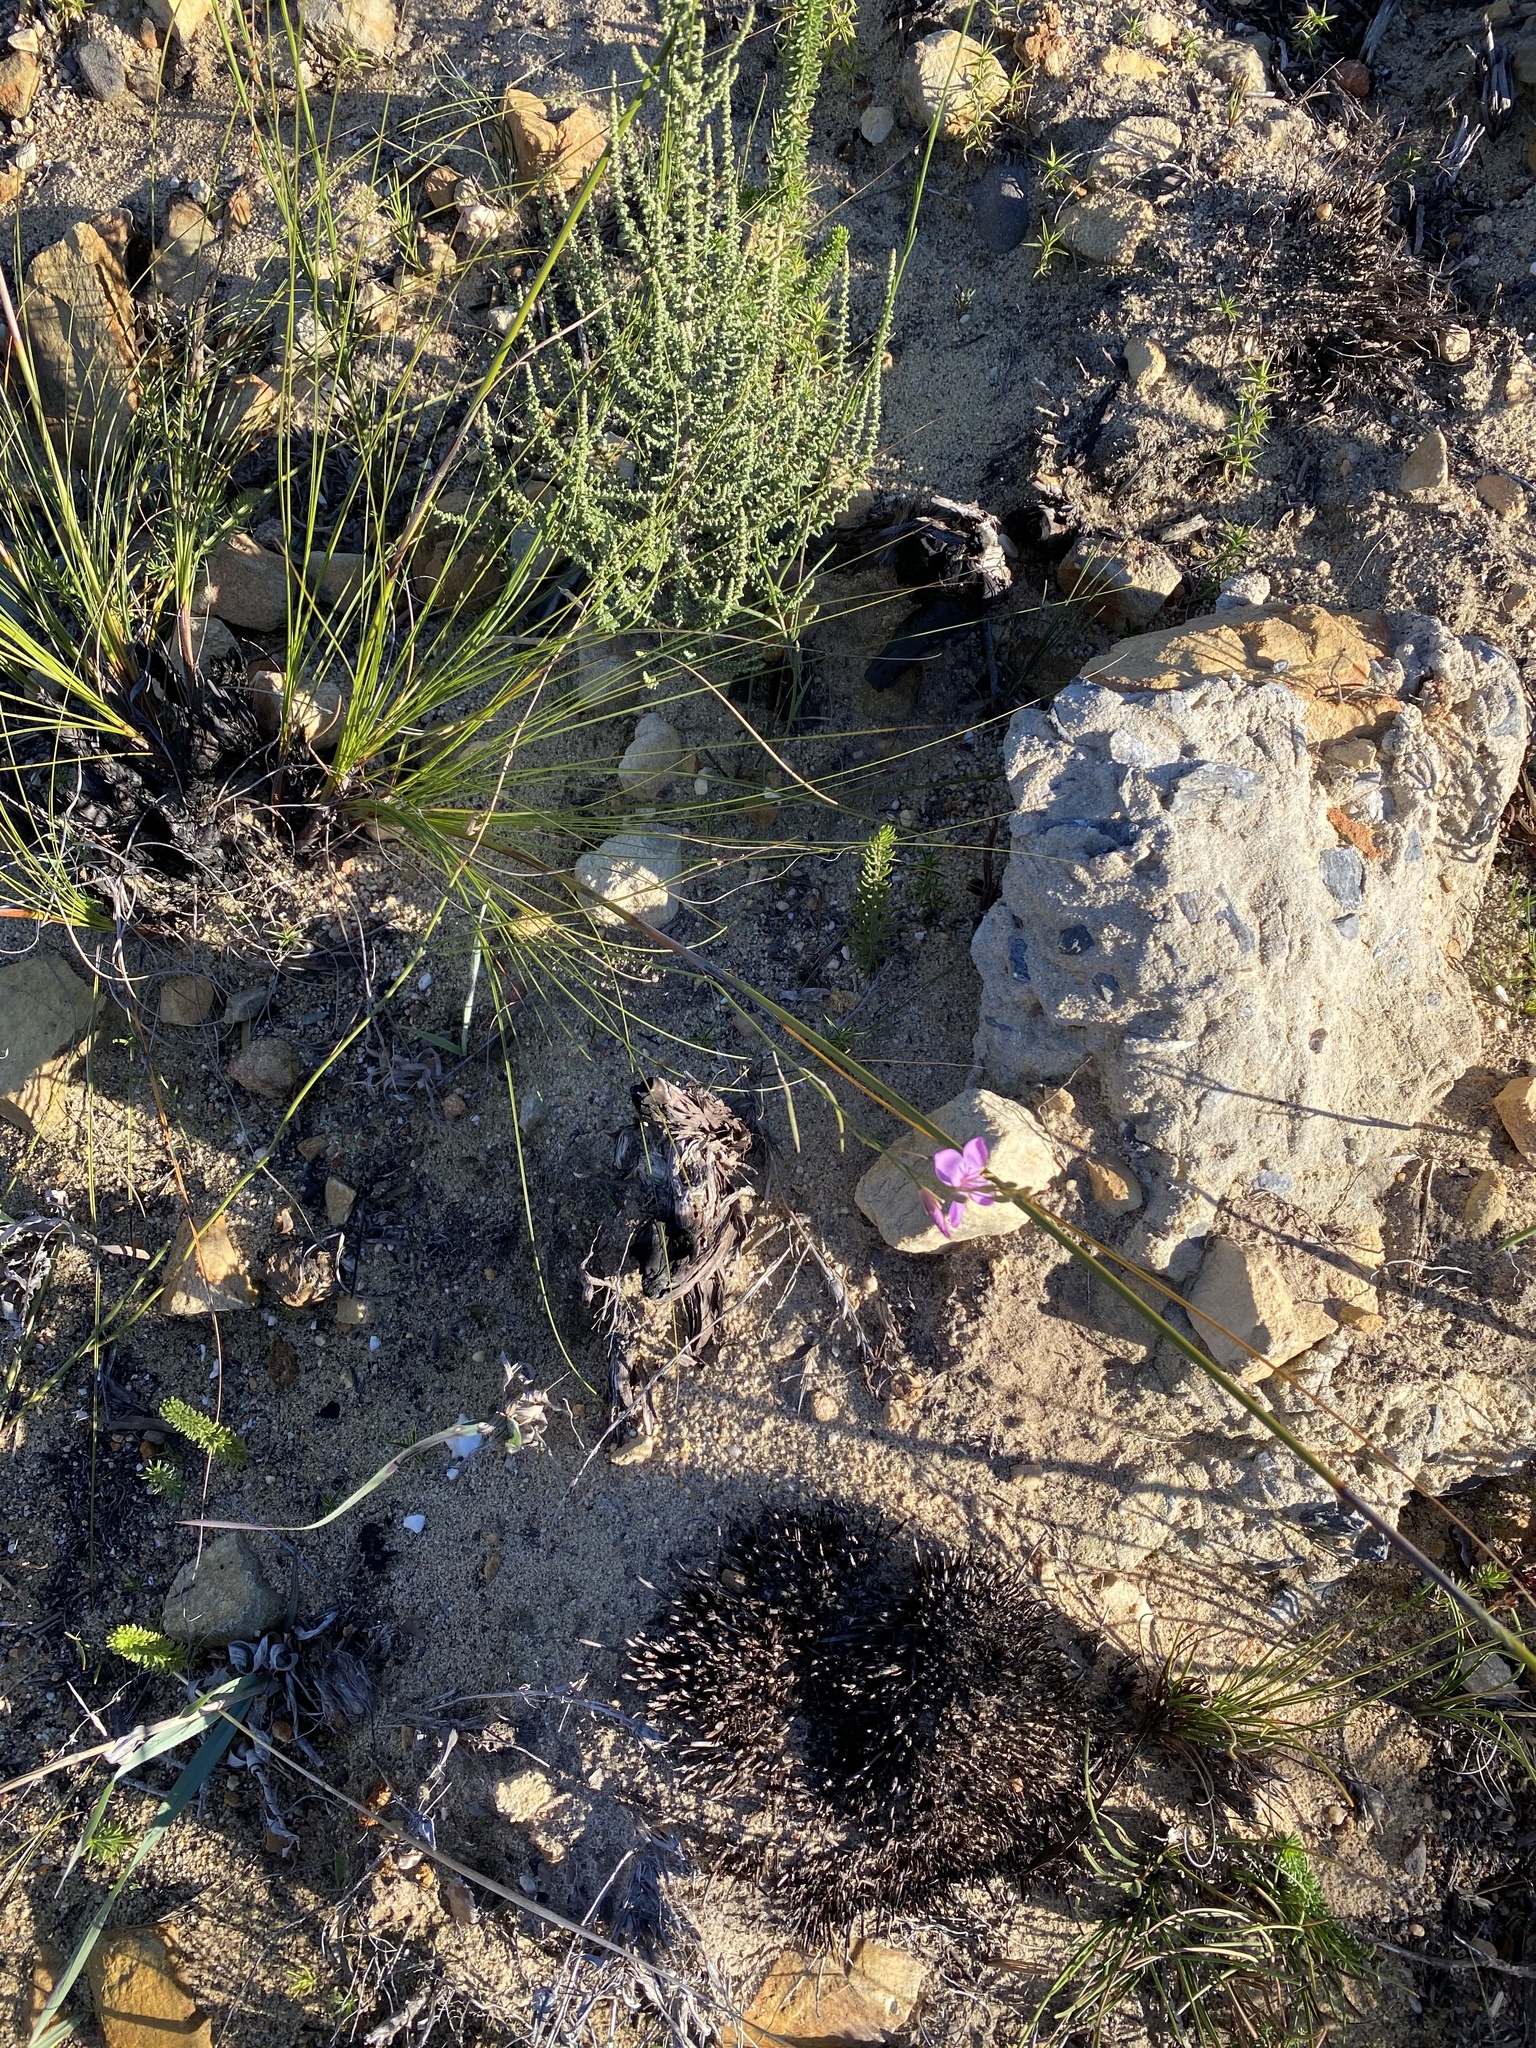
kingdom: Plantae
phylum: Tracheophyta
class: Magnoliopsida
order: Brassicales
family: Brassicaceae
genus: Heliophila
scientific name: Heliophila subulata
